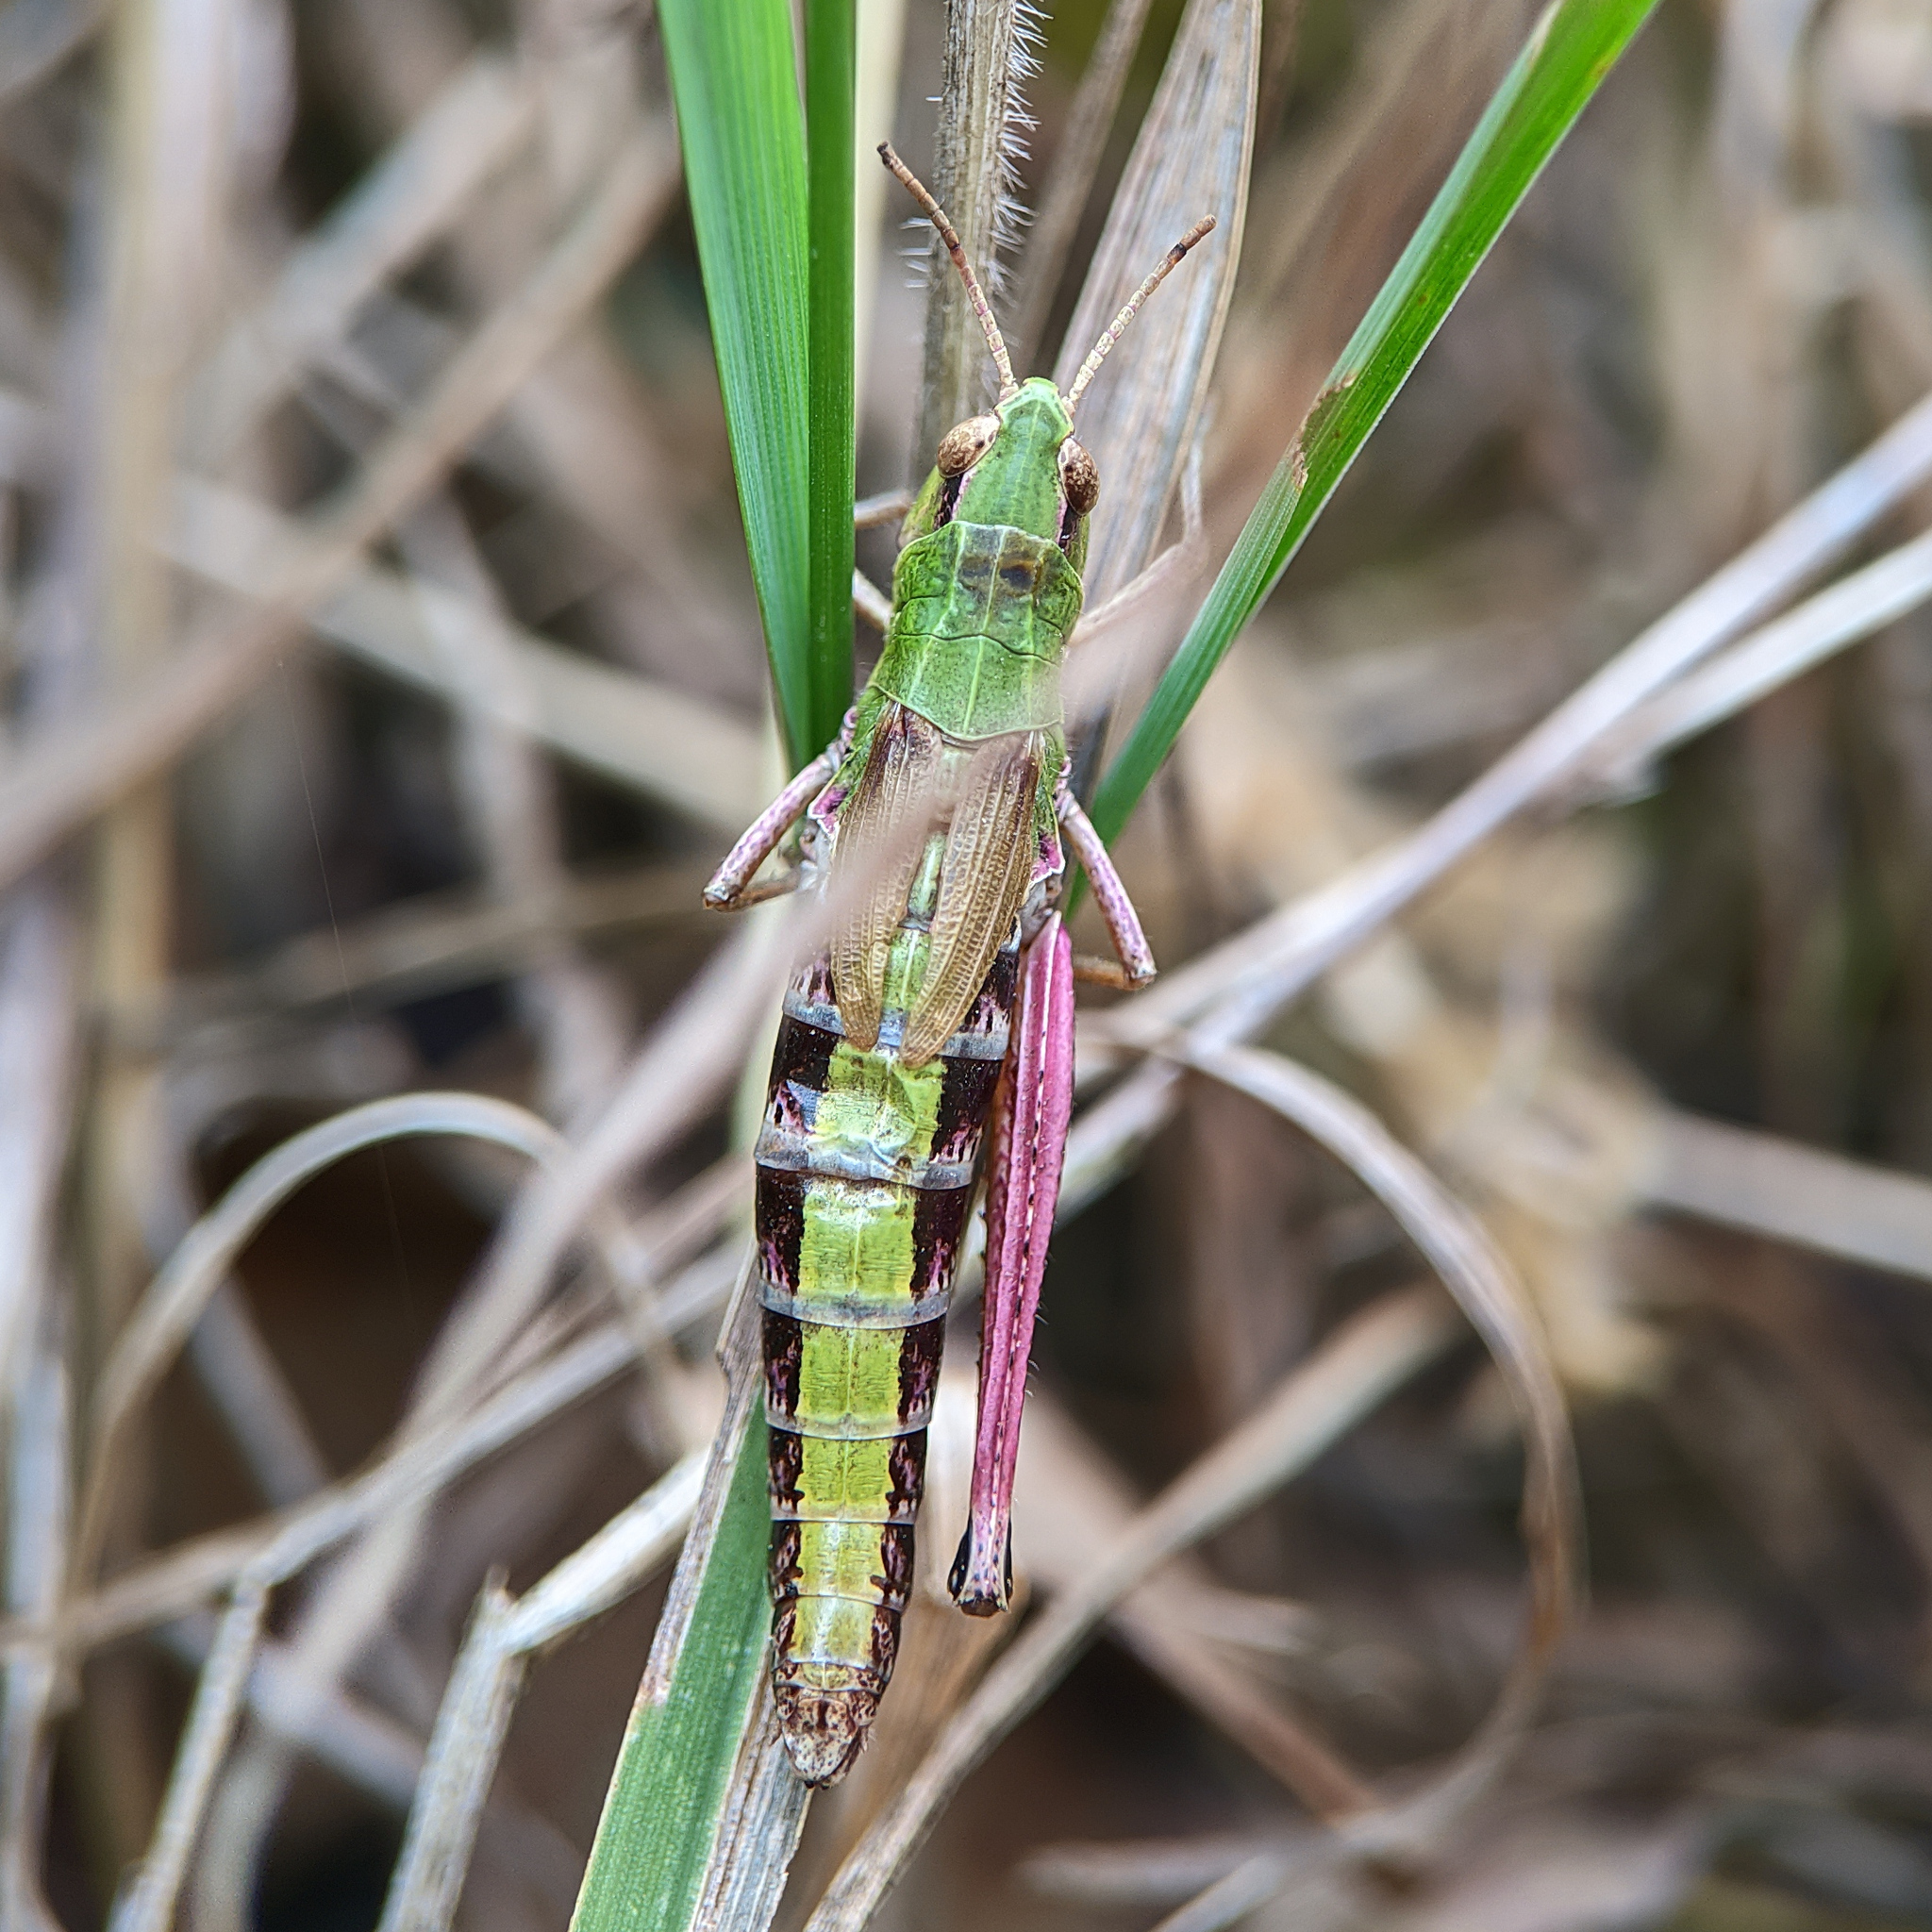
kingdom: Animalia
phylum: Arthropoda
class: Insecta
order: Orthoptera
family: Acrididae
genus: Pseudochorthippus
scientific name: Pseudochorthippus parallelus
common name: Meadow grasshopper
